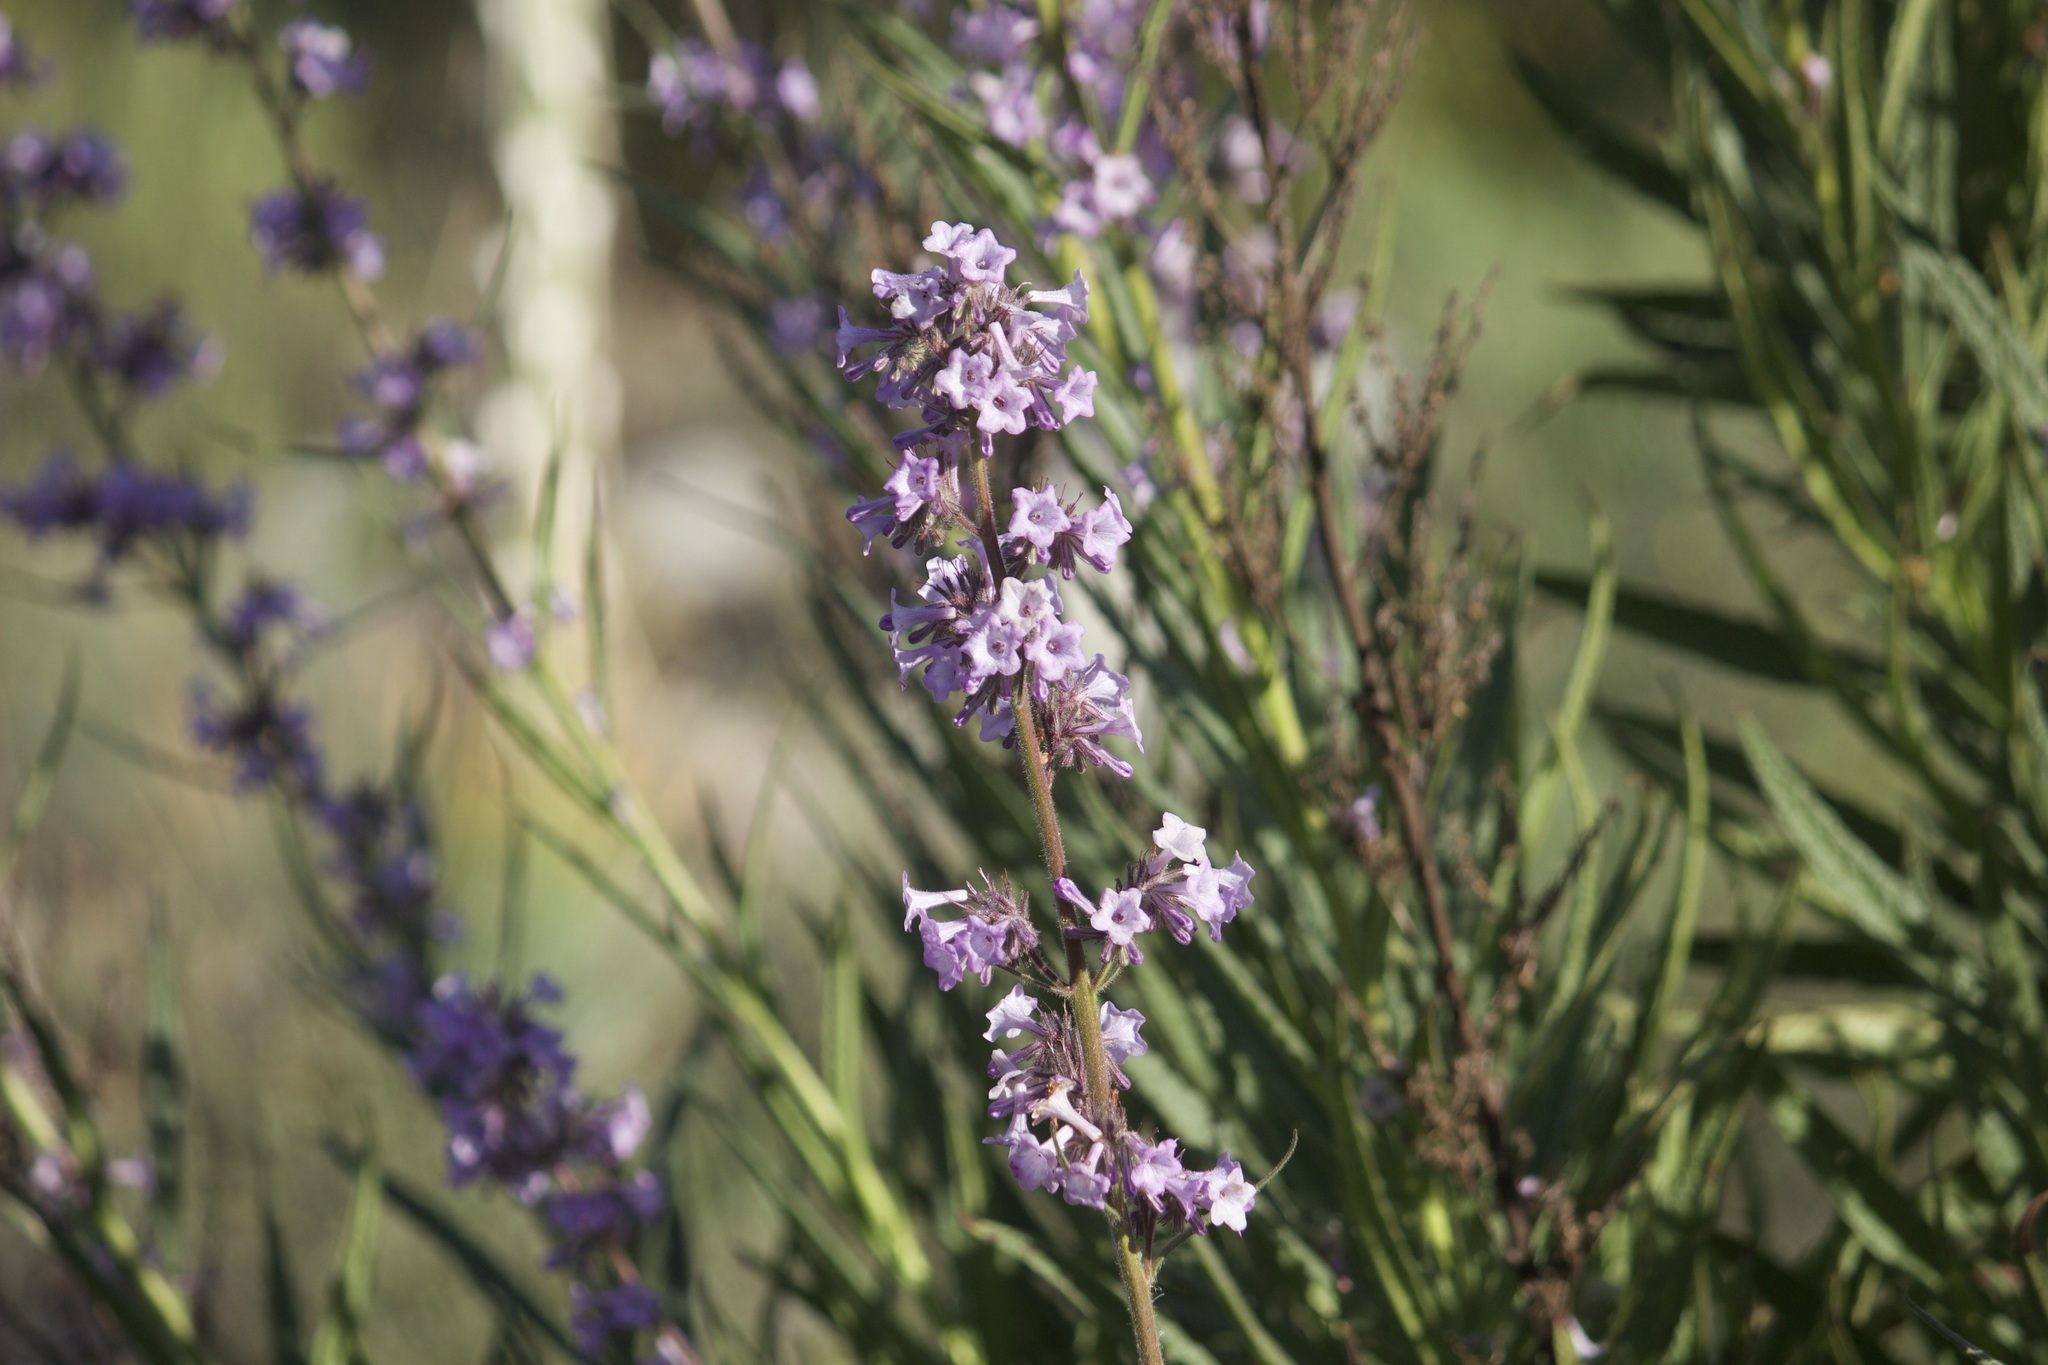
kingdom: Plantae
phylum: Tracheophyta
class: Magnoliopsida
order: Boraginales
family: Namaceae
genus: Turricula
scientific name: Turricula parryi
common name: Poodle-dog-bush
